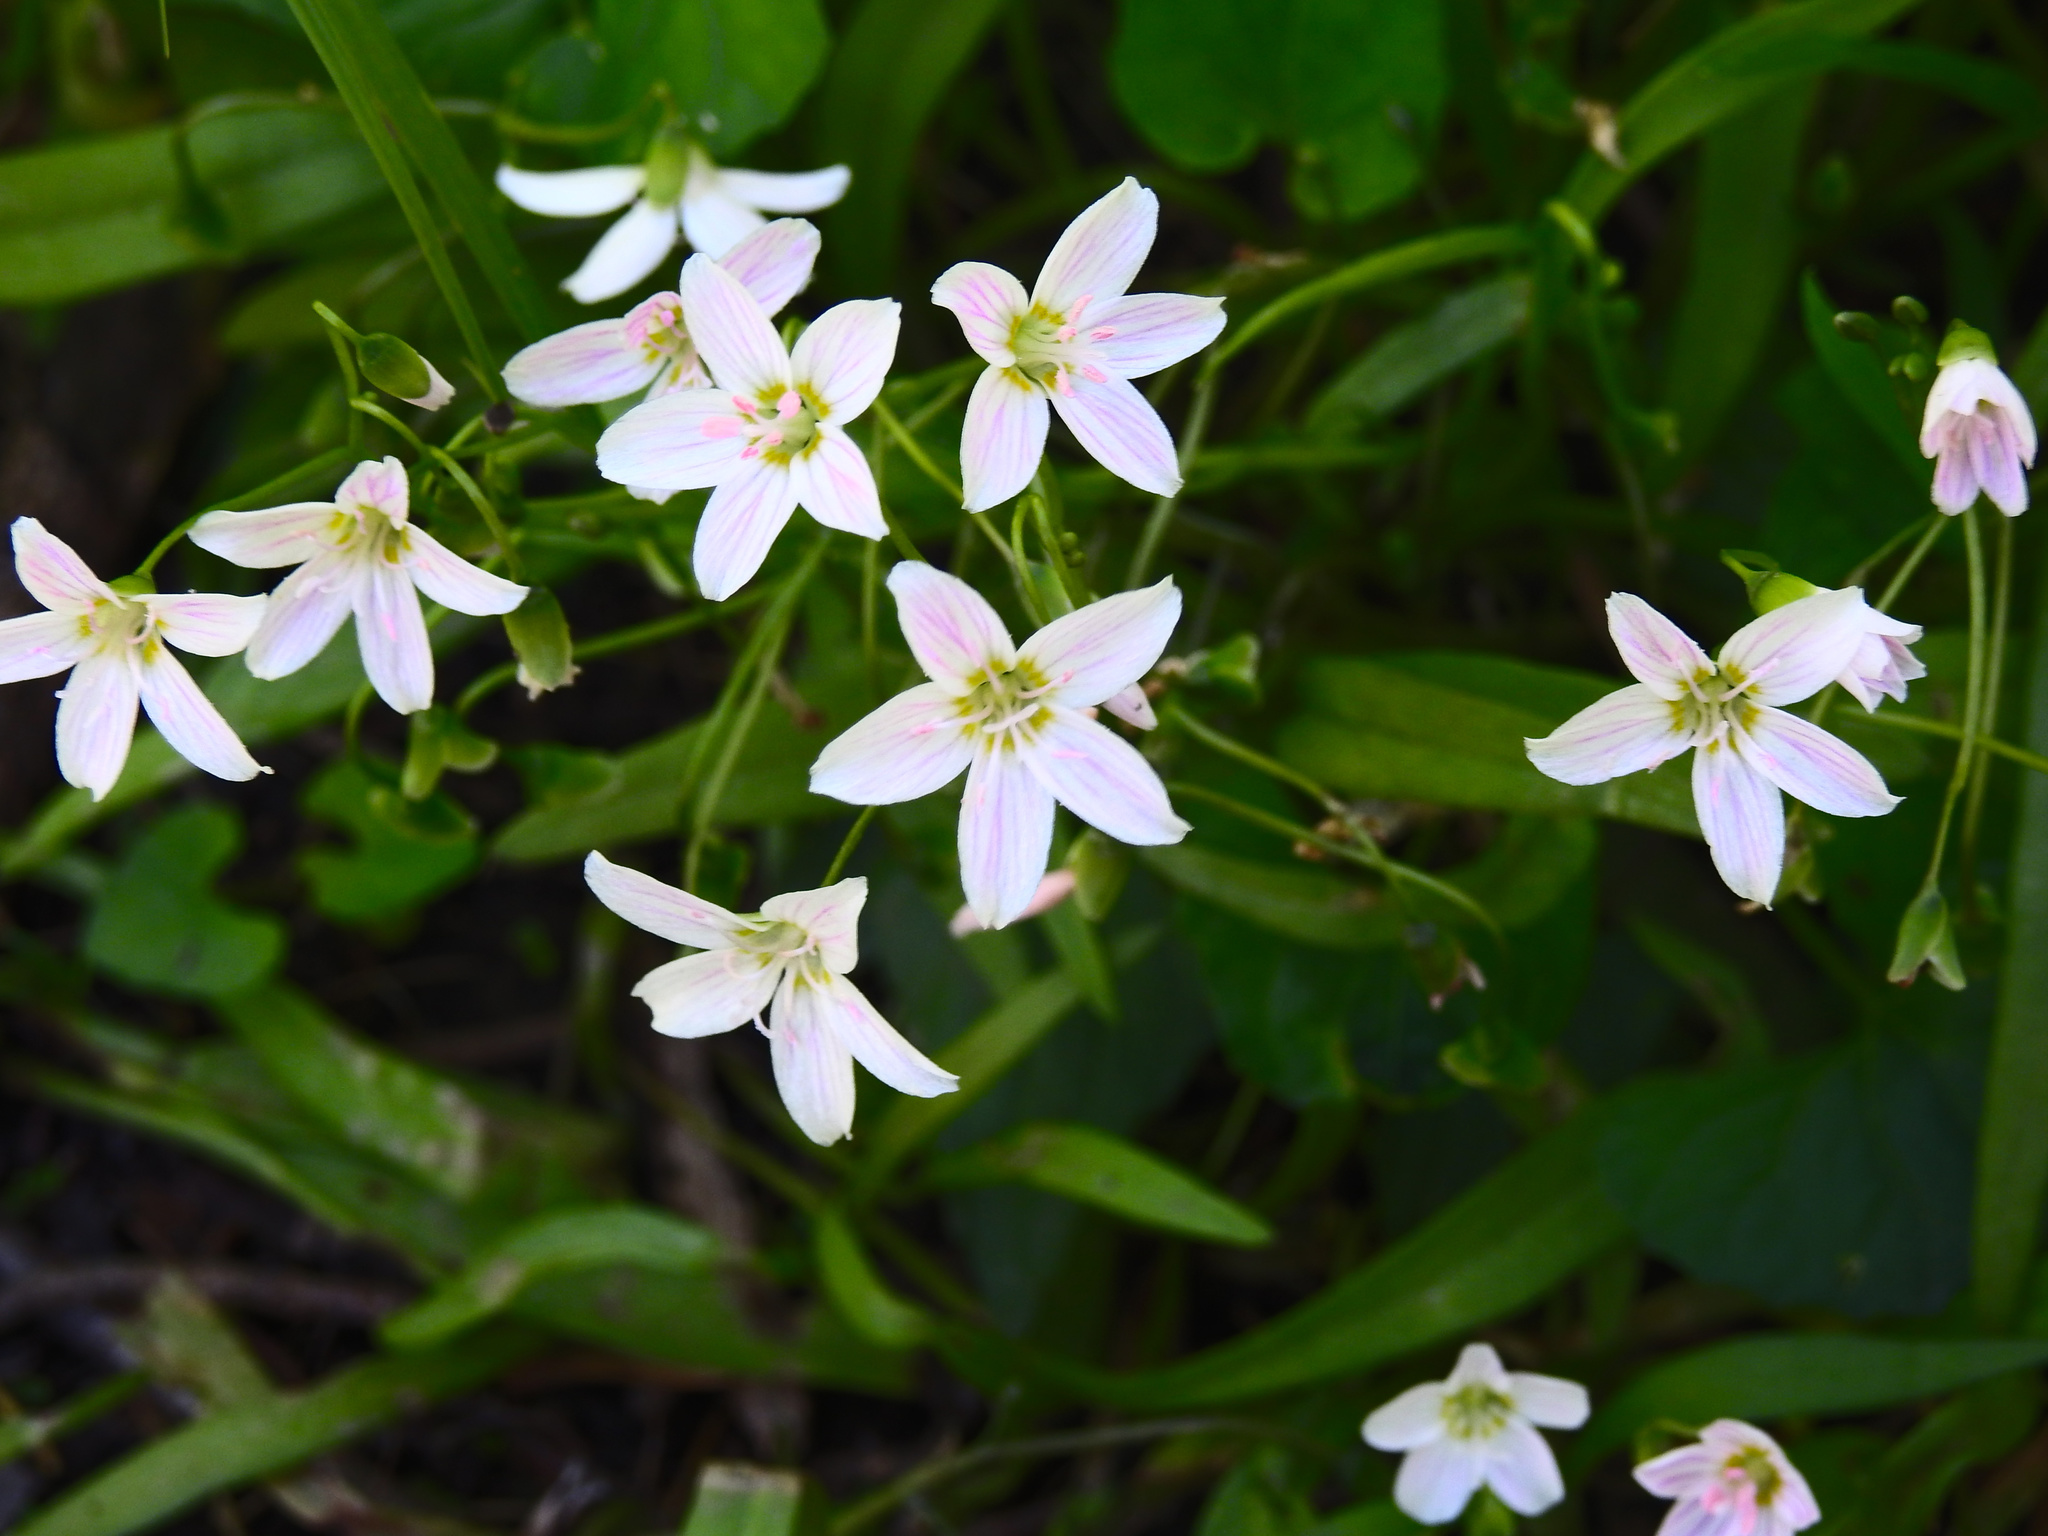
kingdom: Plantae
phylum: Tracheophyta
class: Magnoliopsida
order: Caryophyllales
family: Montiaceae
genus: Claytonia
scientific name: Claytonia virginica
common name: Virginia springbeauty
